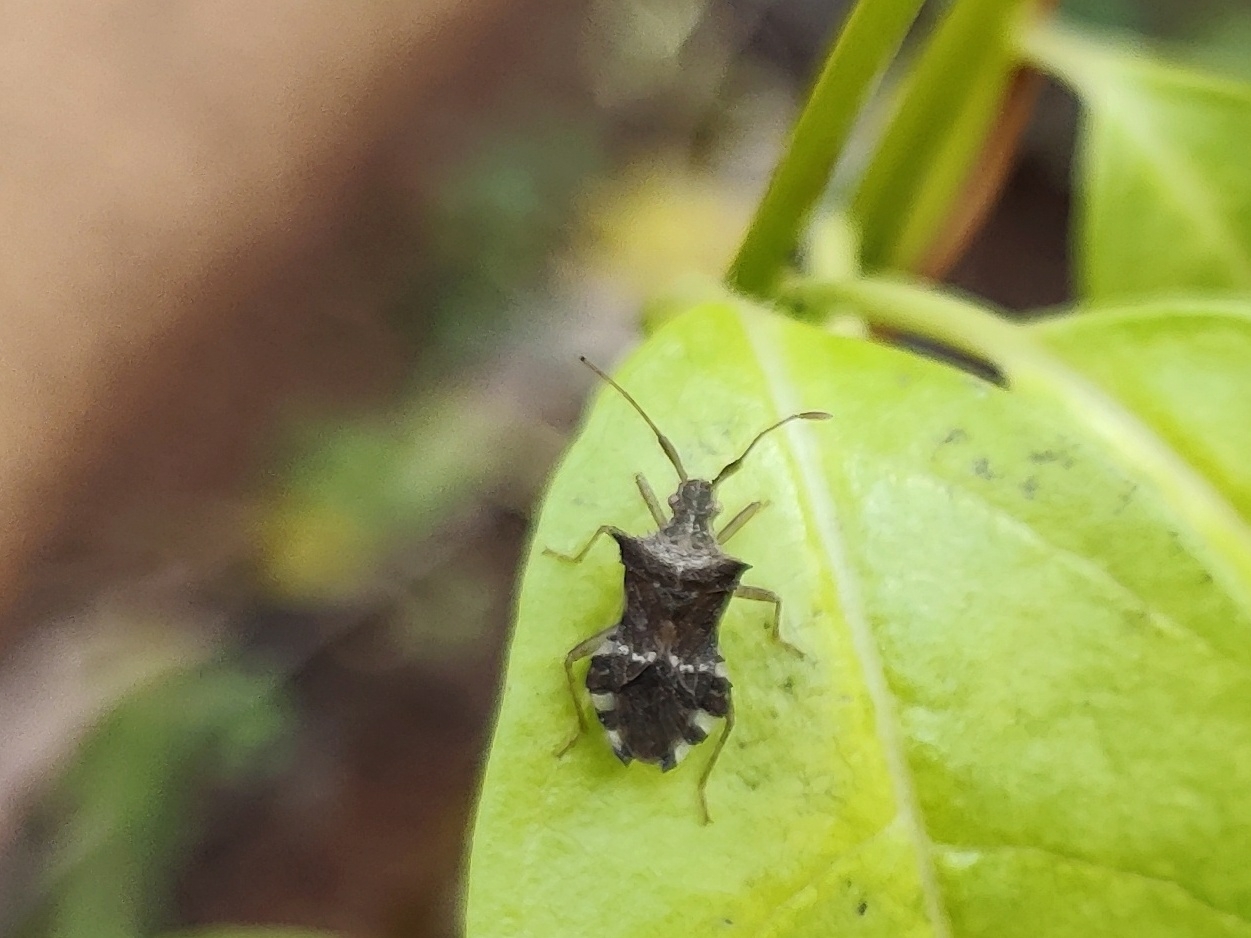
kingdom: Animalia
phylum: Arthropoda
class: Insecta
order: Hemiptera
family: Coreidae
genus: Cletomorpha
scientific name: Cletomorpha hastata
